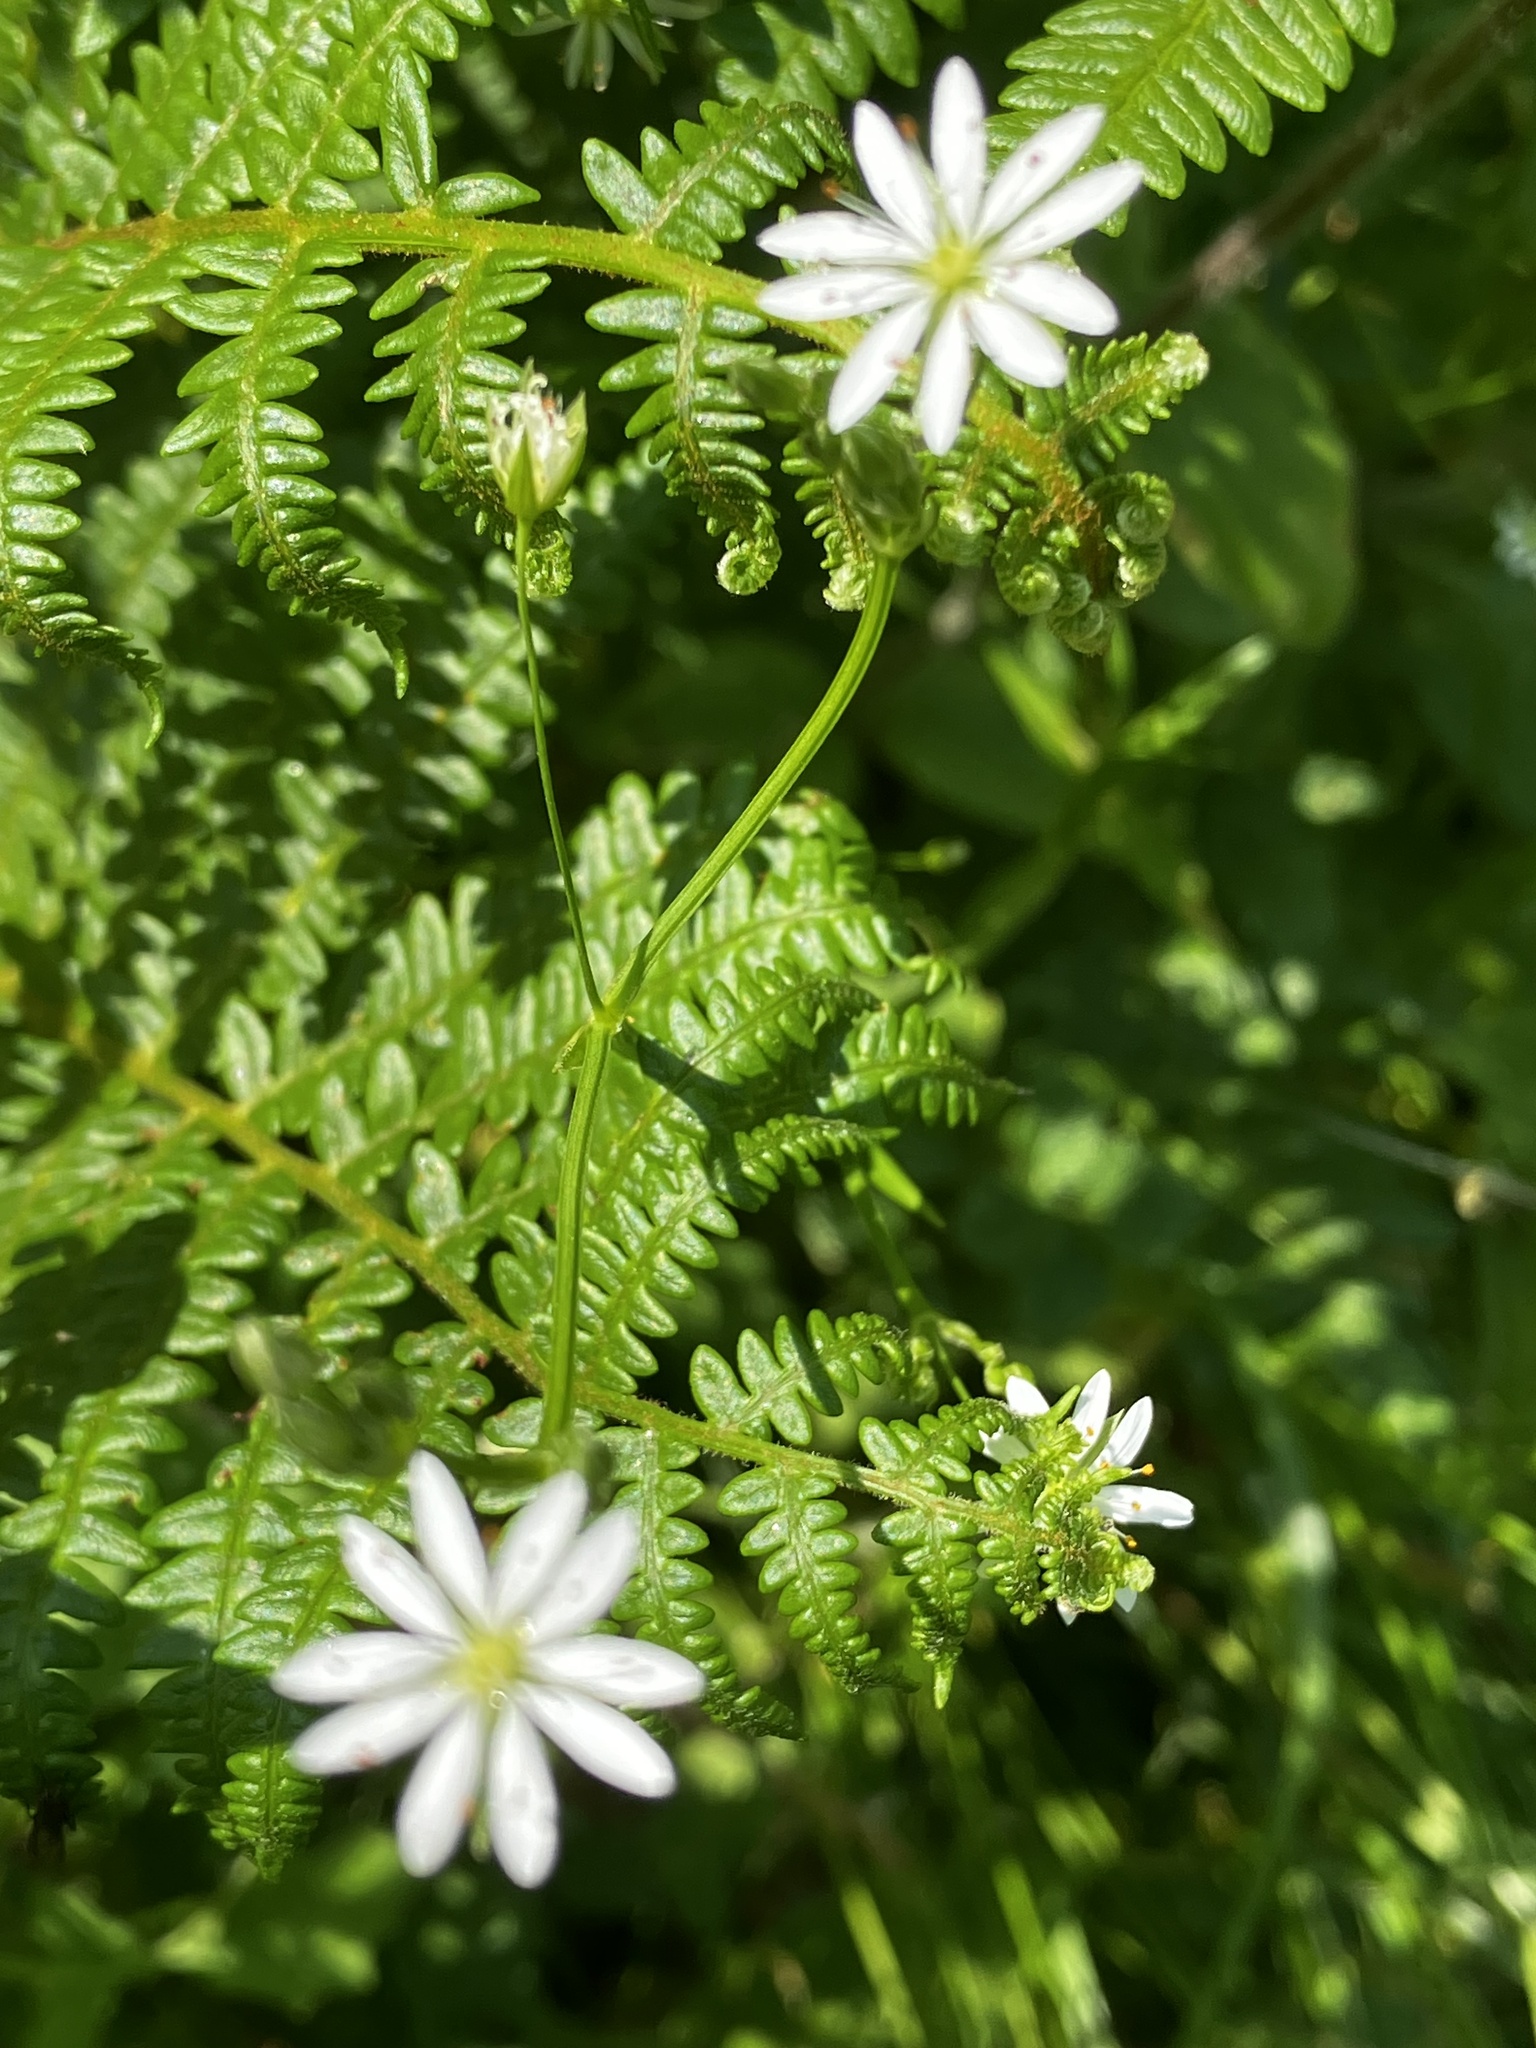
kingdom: Plantae
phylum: Tracheophyta
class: Magnoliopsida
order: Caryophyllales
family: Caryophyllaceae
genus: Stellaria
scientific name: Stellaria graminea
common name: Grass-like starwort
